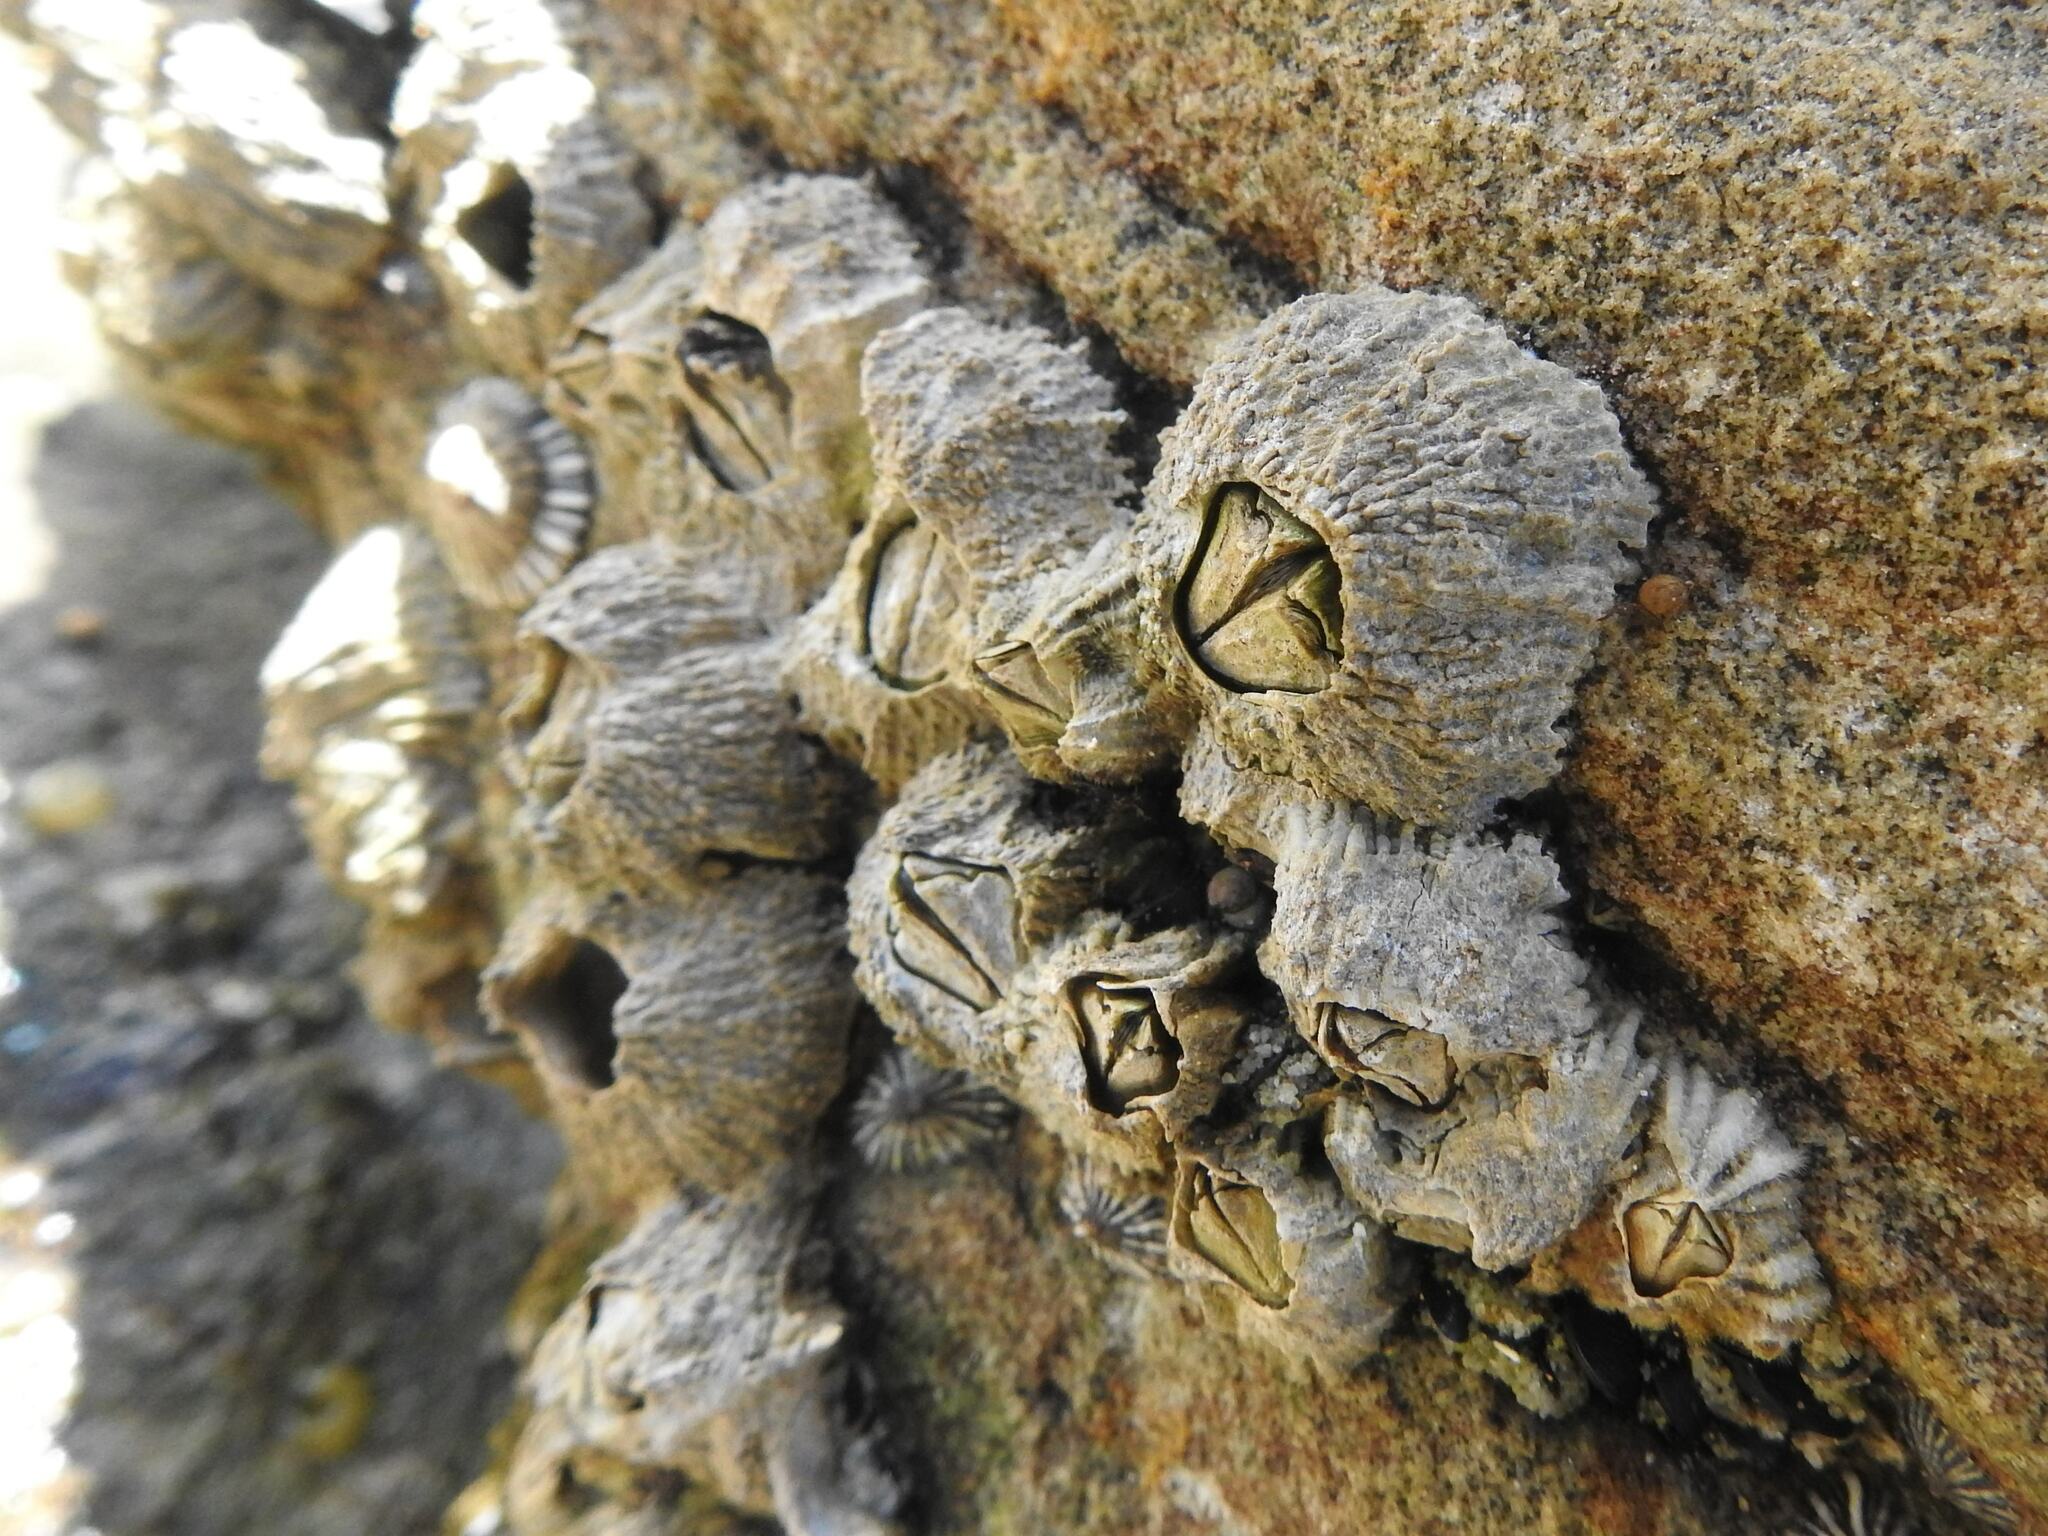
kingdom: Animalia
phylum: Arthropoda
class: Maxillopoda
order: Sessilia
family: Tetraclitidae
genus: Tetraclitella
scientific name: Tetraclitella purpurascens
